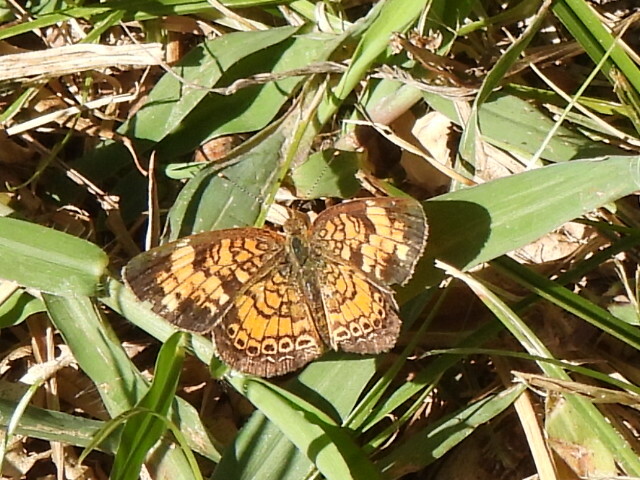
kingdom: Animalia
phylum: Arthropoda
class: Insecta
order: Lepidoptera
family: Nymphalidae
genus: Phyciodes
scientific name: Phyciodes tharos
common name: Pearl crescent
